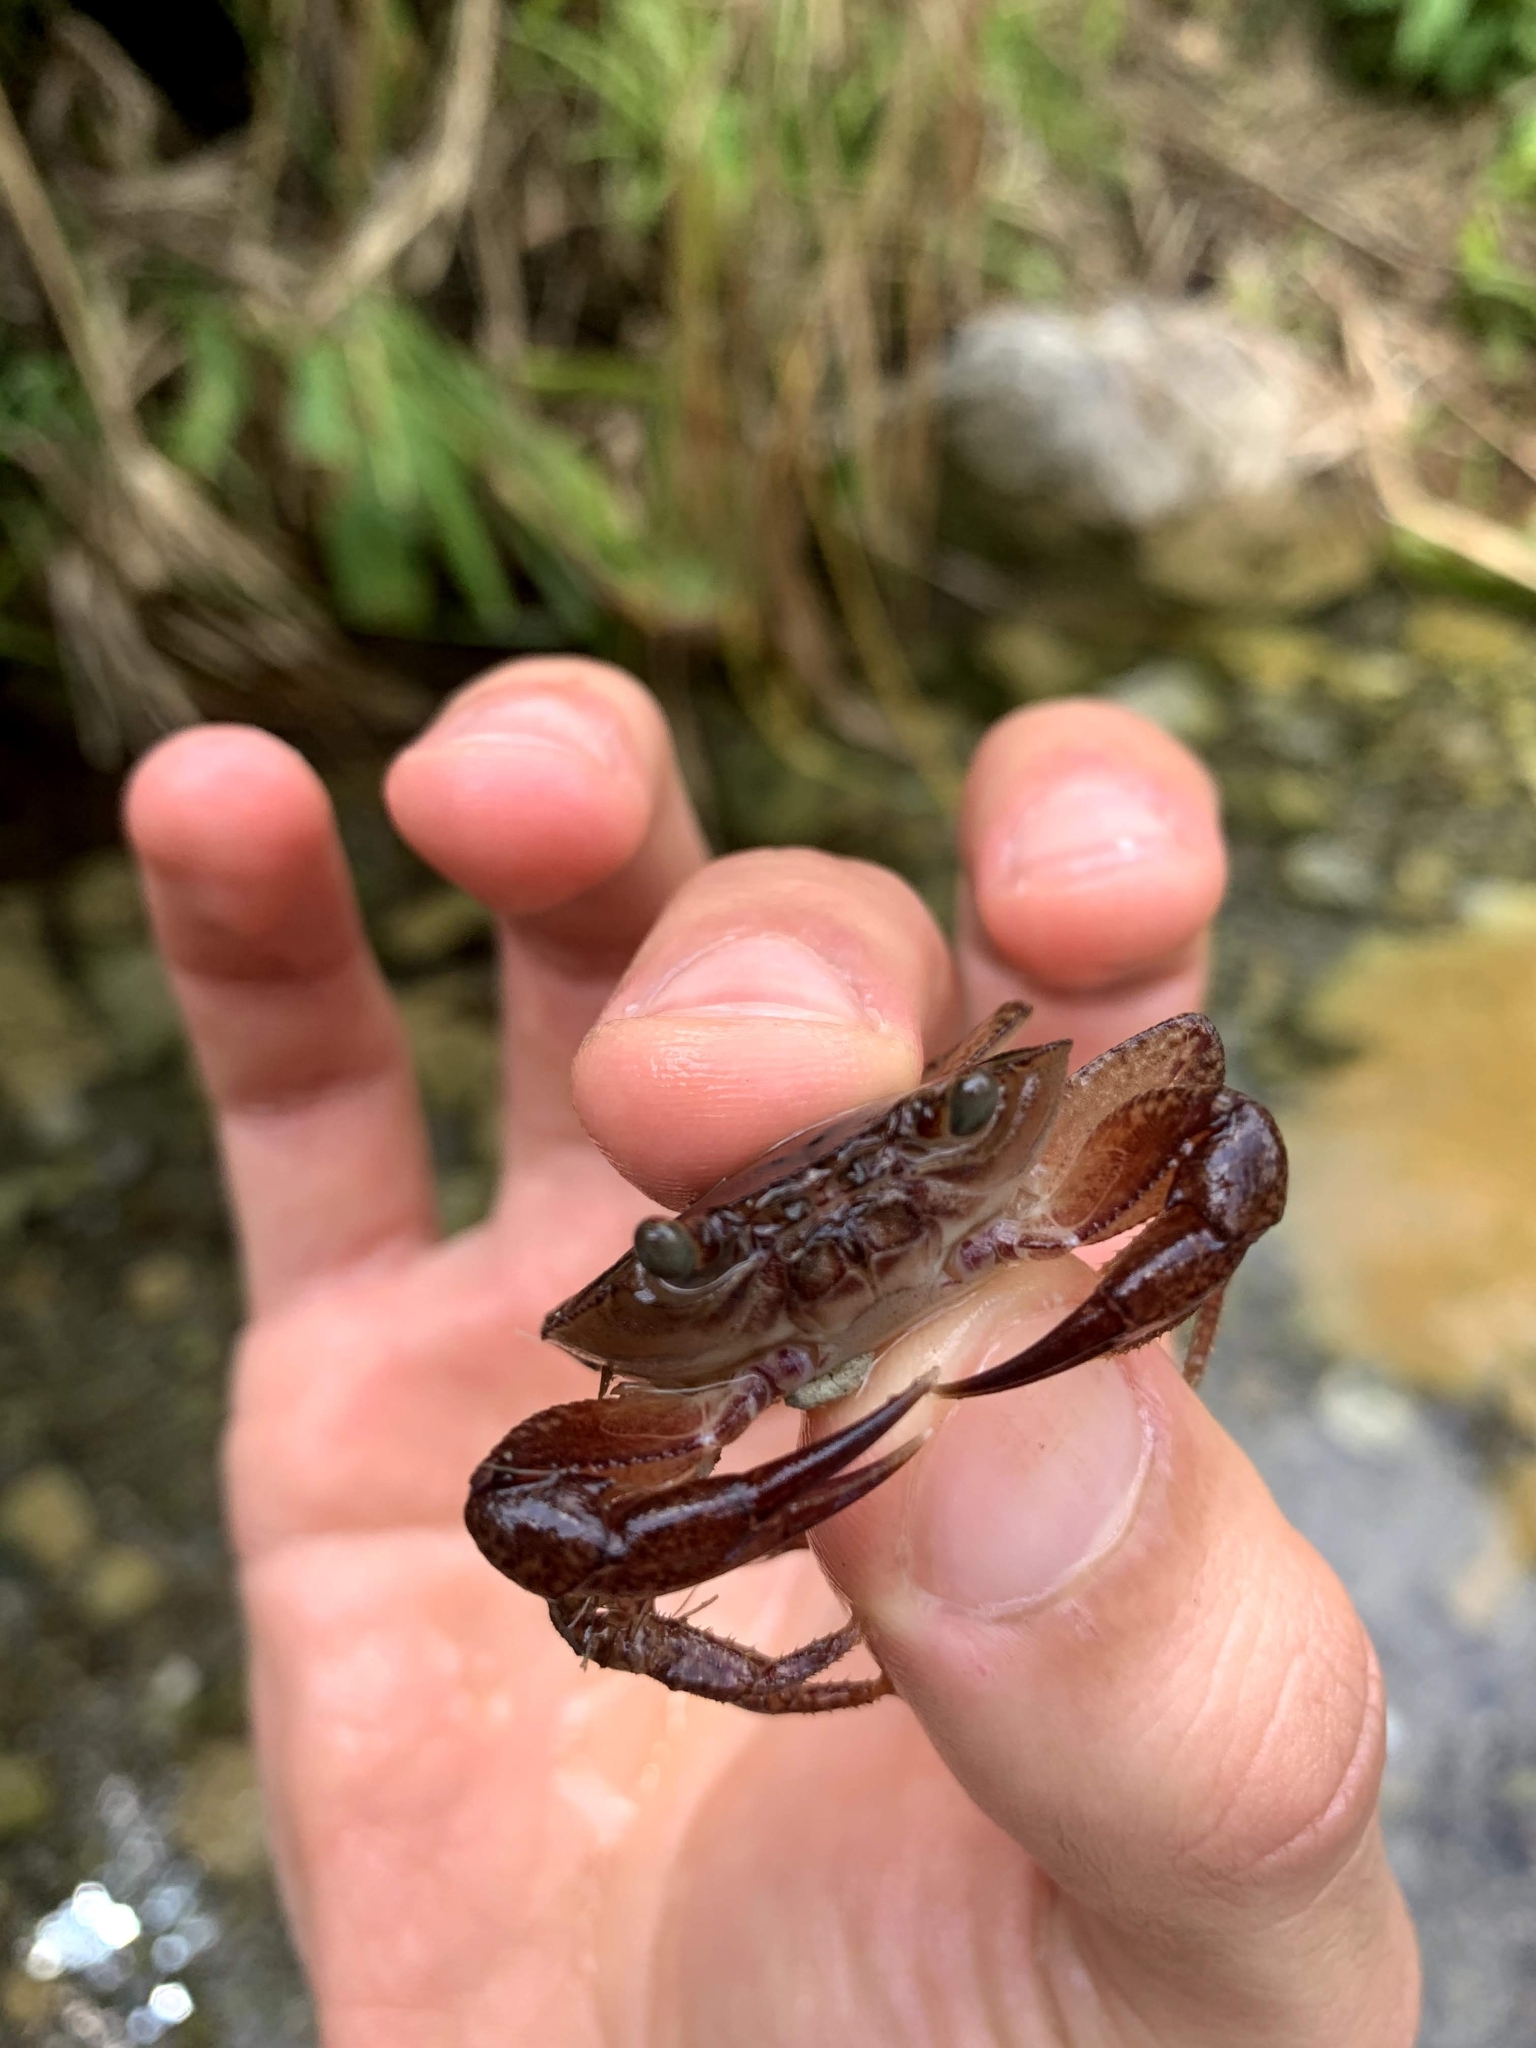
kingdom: Animalia
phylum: Arthropoda
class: Malacostraca
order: Decapoda
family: Epiloboceridae
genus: Epilobocera
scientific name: Epilobocera haytensis
